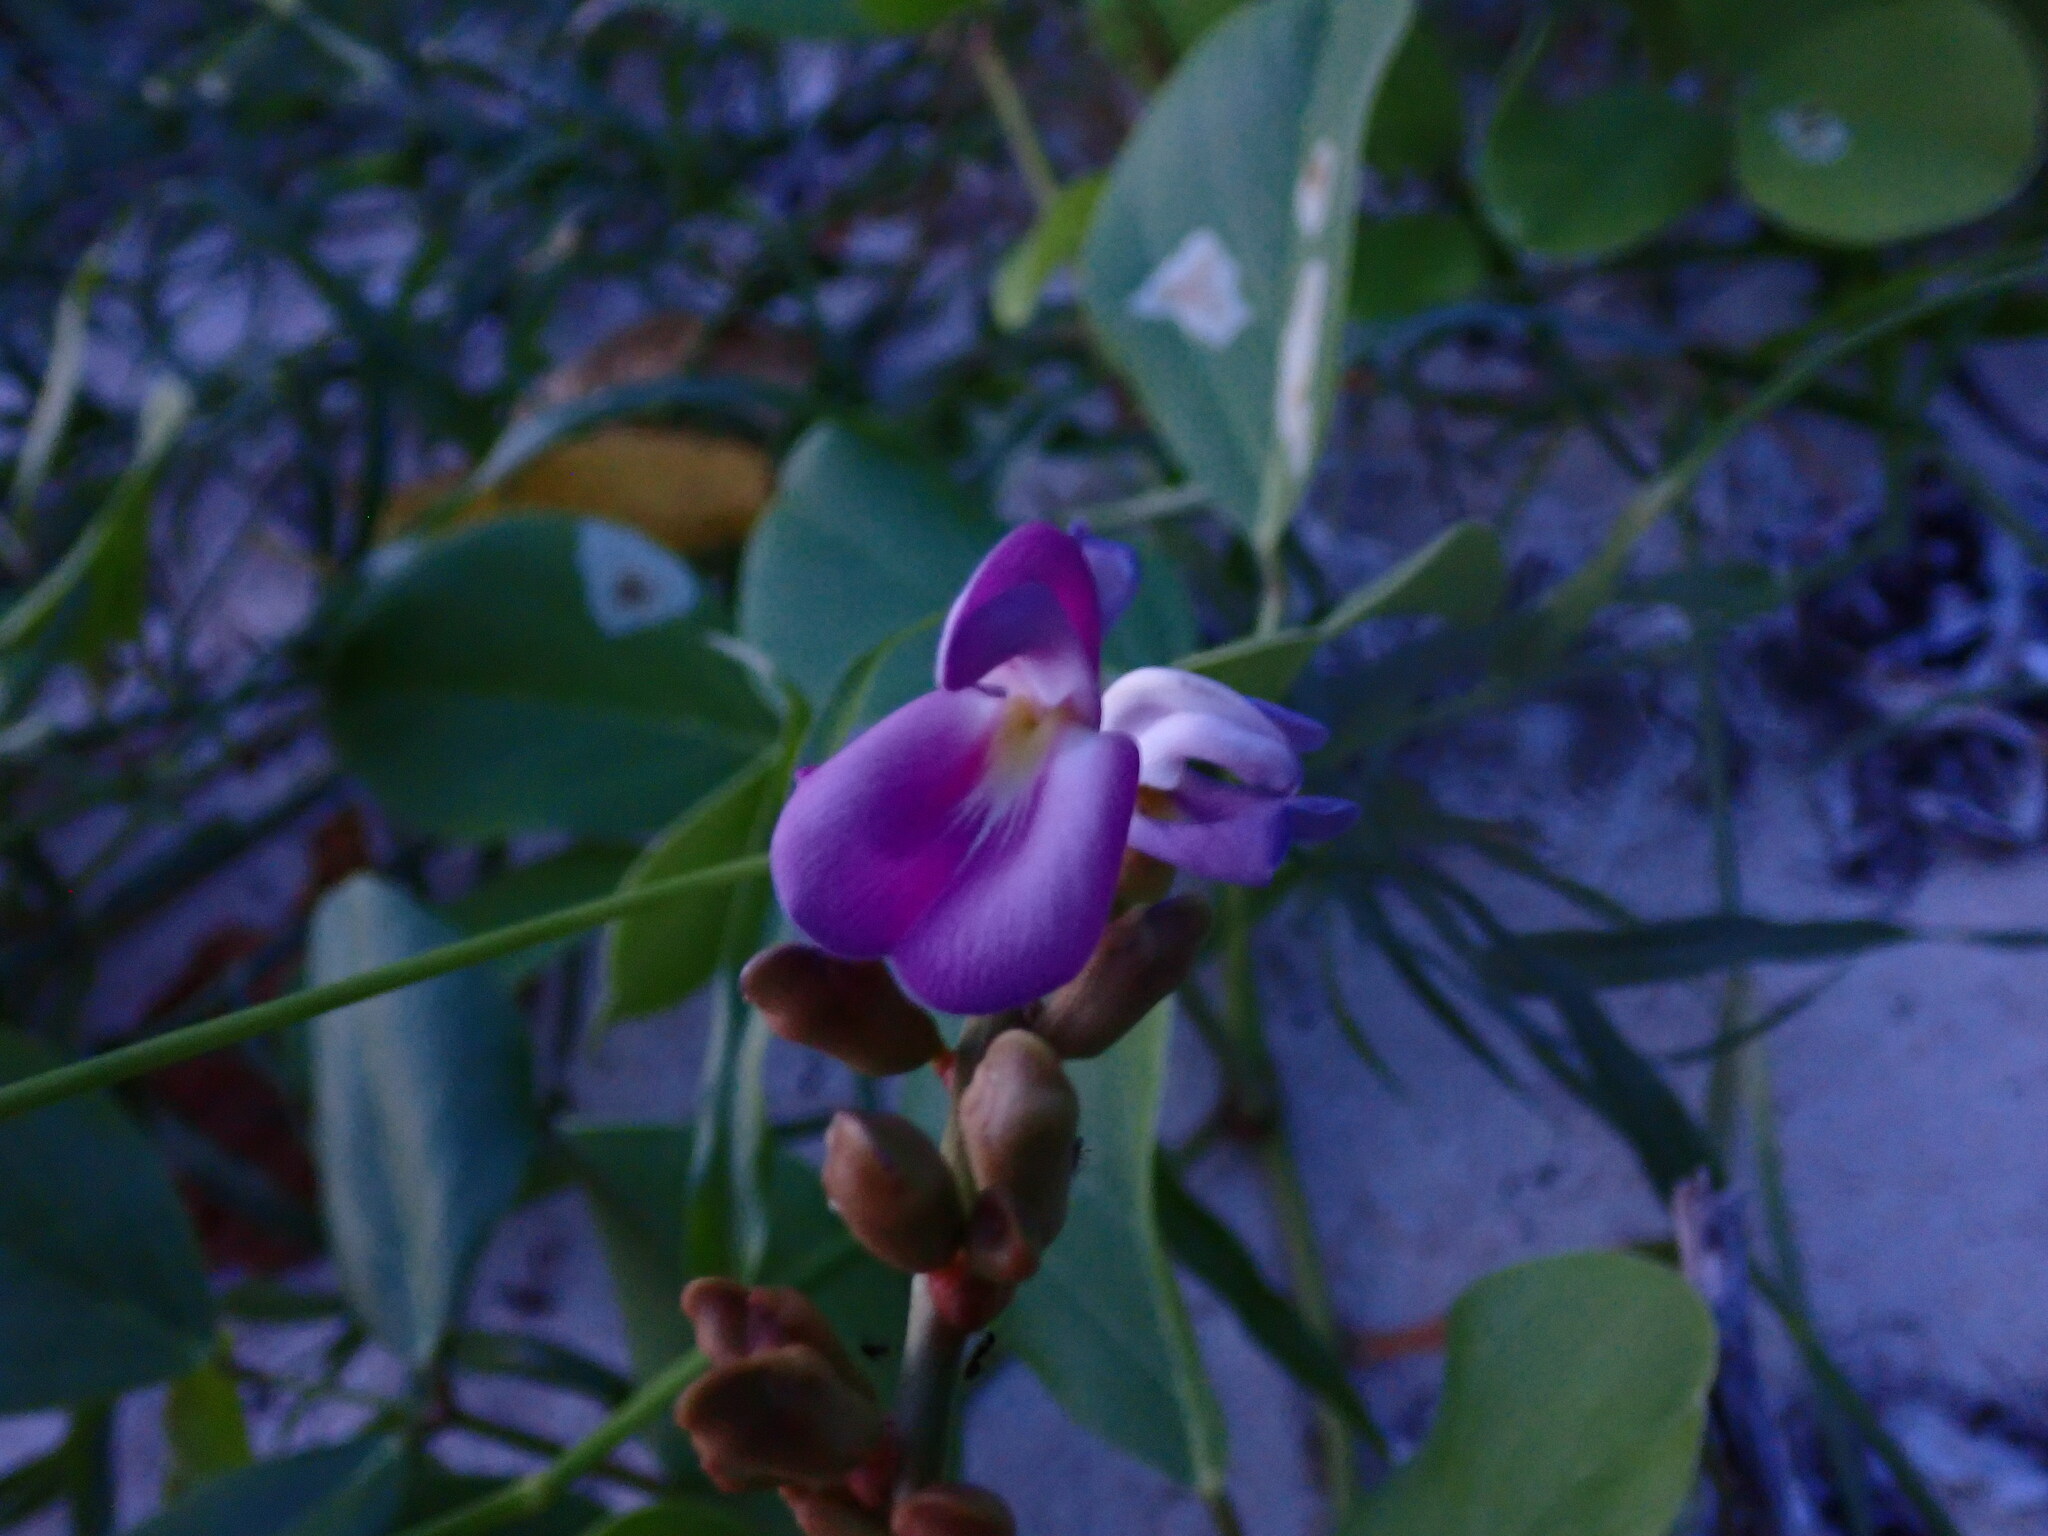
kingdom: Plantae
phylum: Tracheophyta
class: Magnoliopsida
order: Fabales
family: Fabaceae
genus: Canavalia
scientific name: Canavalia rosea
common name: Beach-bean
